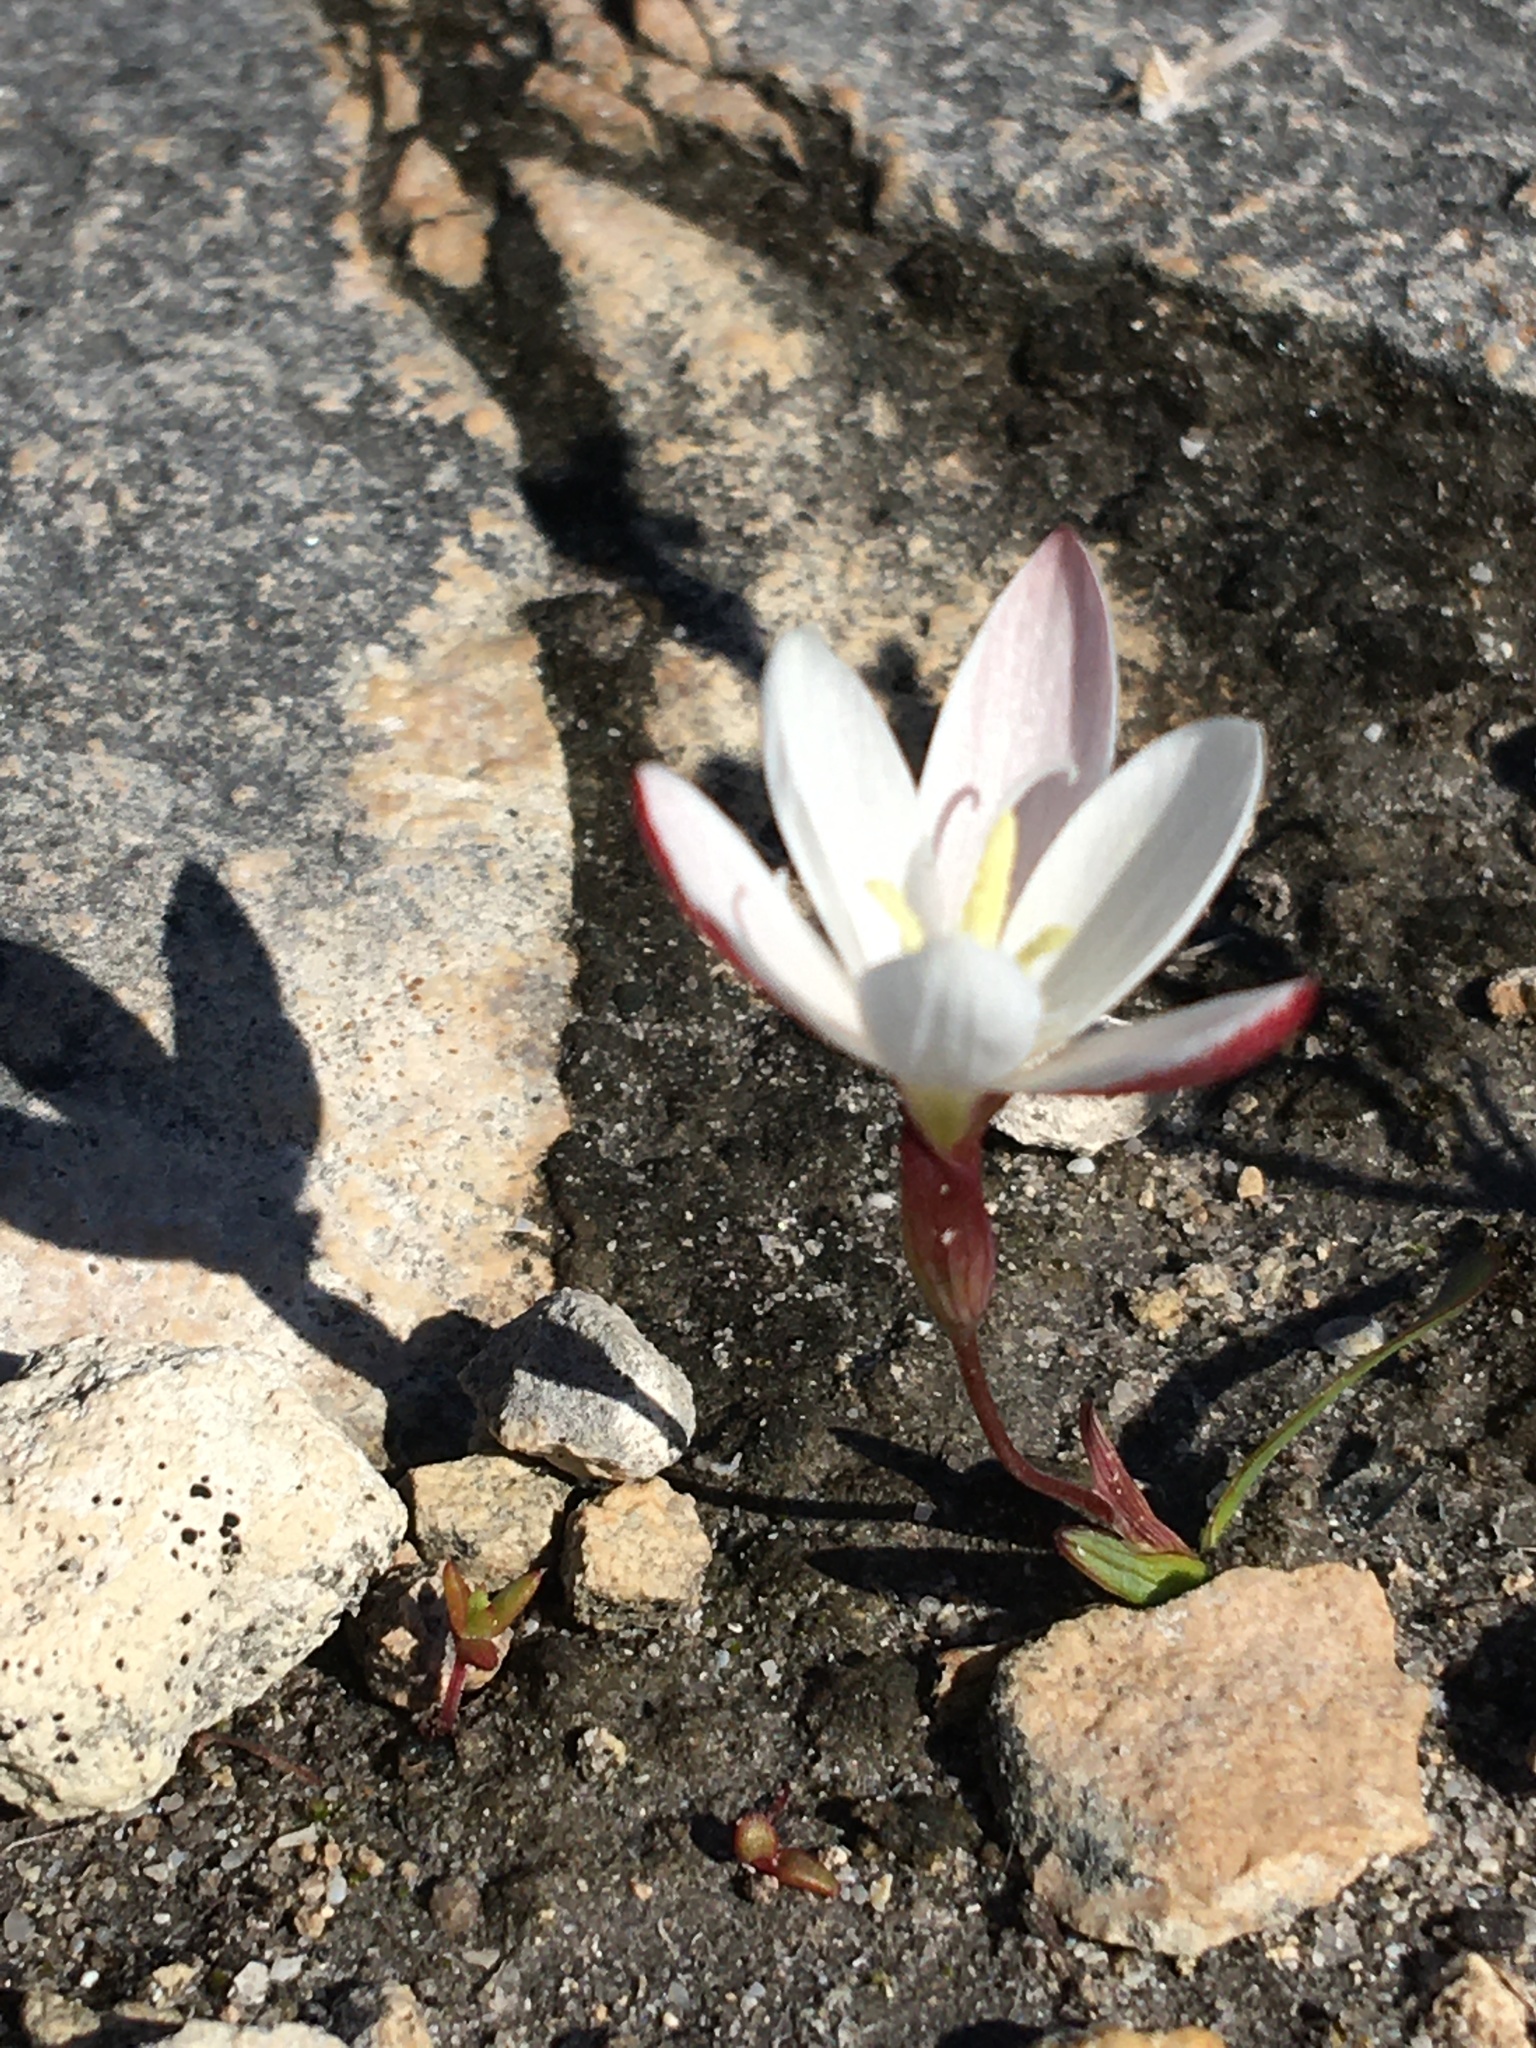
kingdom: Plantae
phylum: Tracheophyta
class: Liliopsida
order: Asparagales
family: Iridaceae
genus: Geissorhiza
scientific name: Geissorhiza ovata
